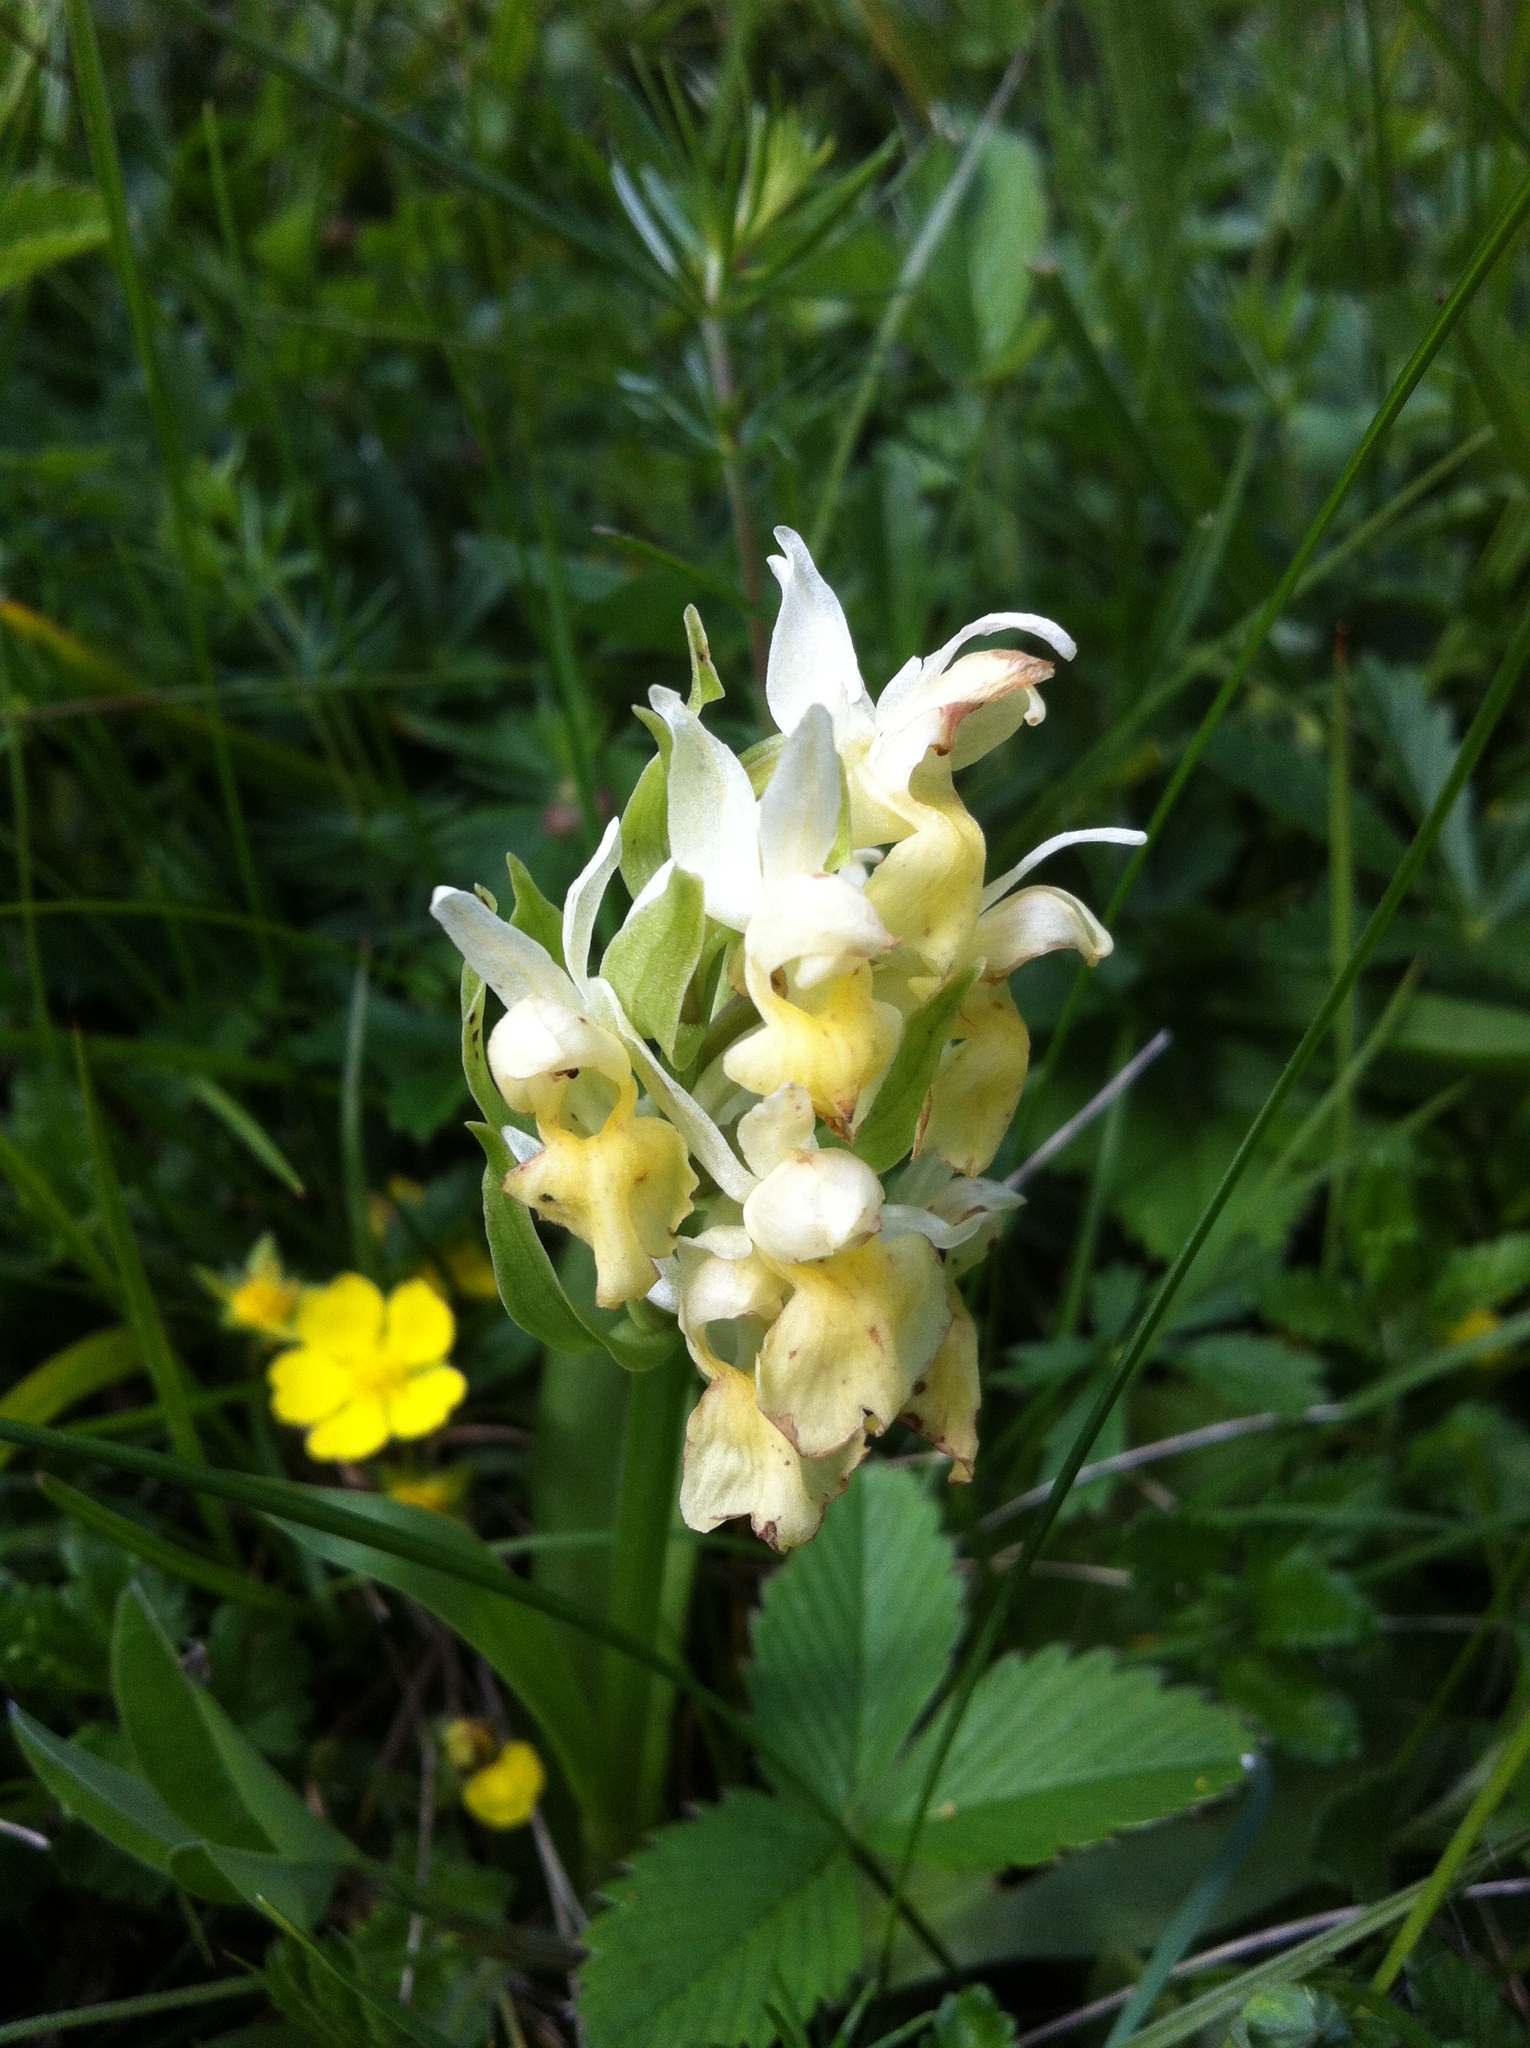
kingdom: Plantae
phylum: Tracheophyta
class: Liliopsida
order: Asparagales
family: Orchidaceae
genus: Dactylorhiza
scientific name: Dactylorhiza sambucina
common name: Elder-flowered orchid
